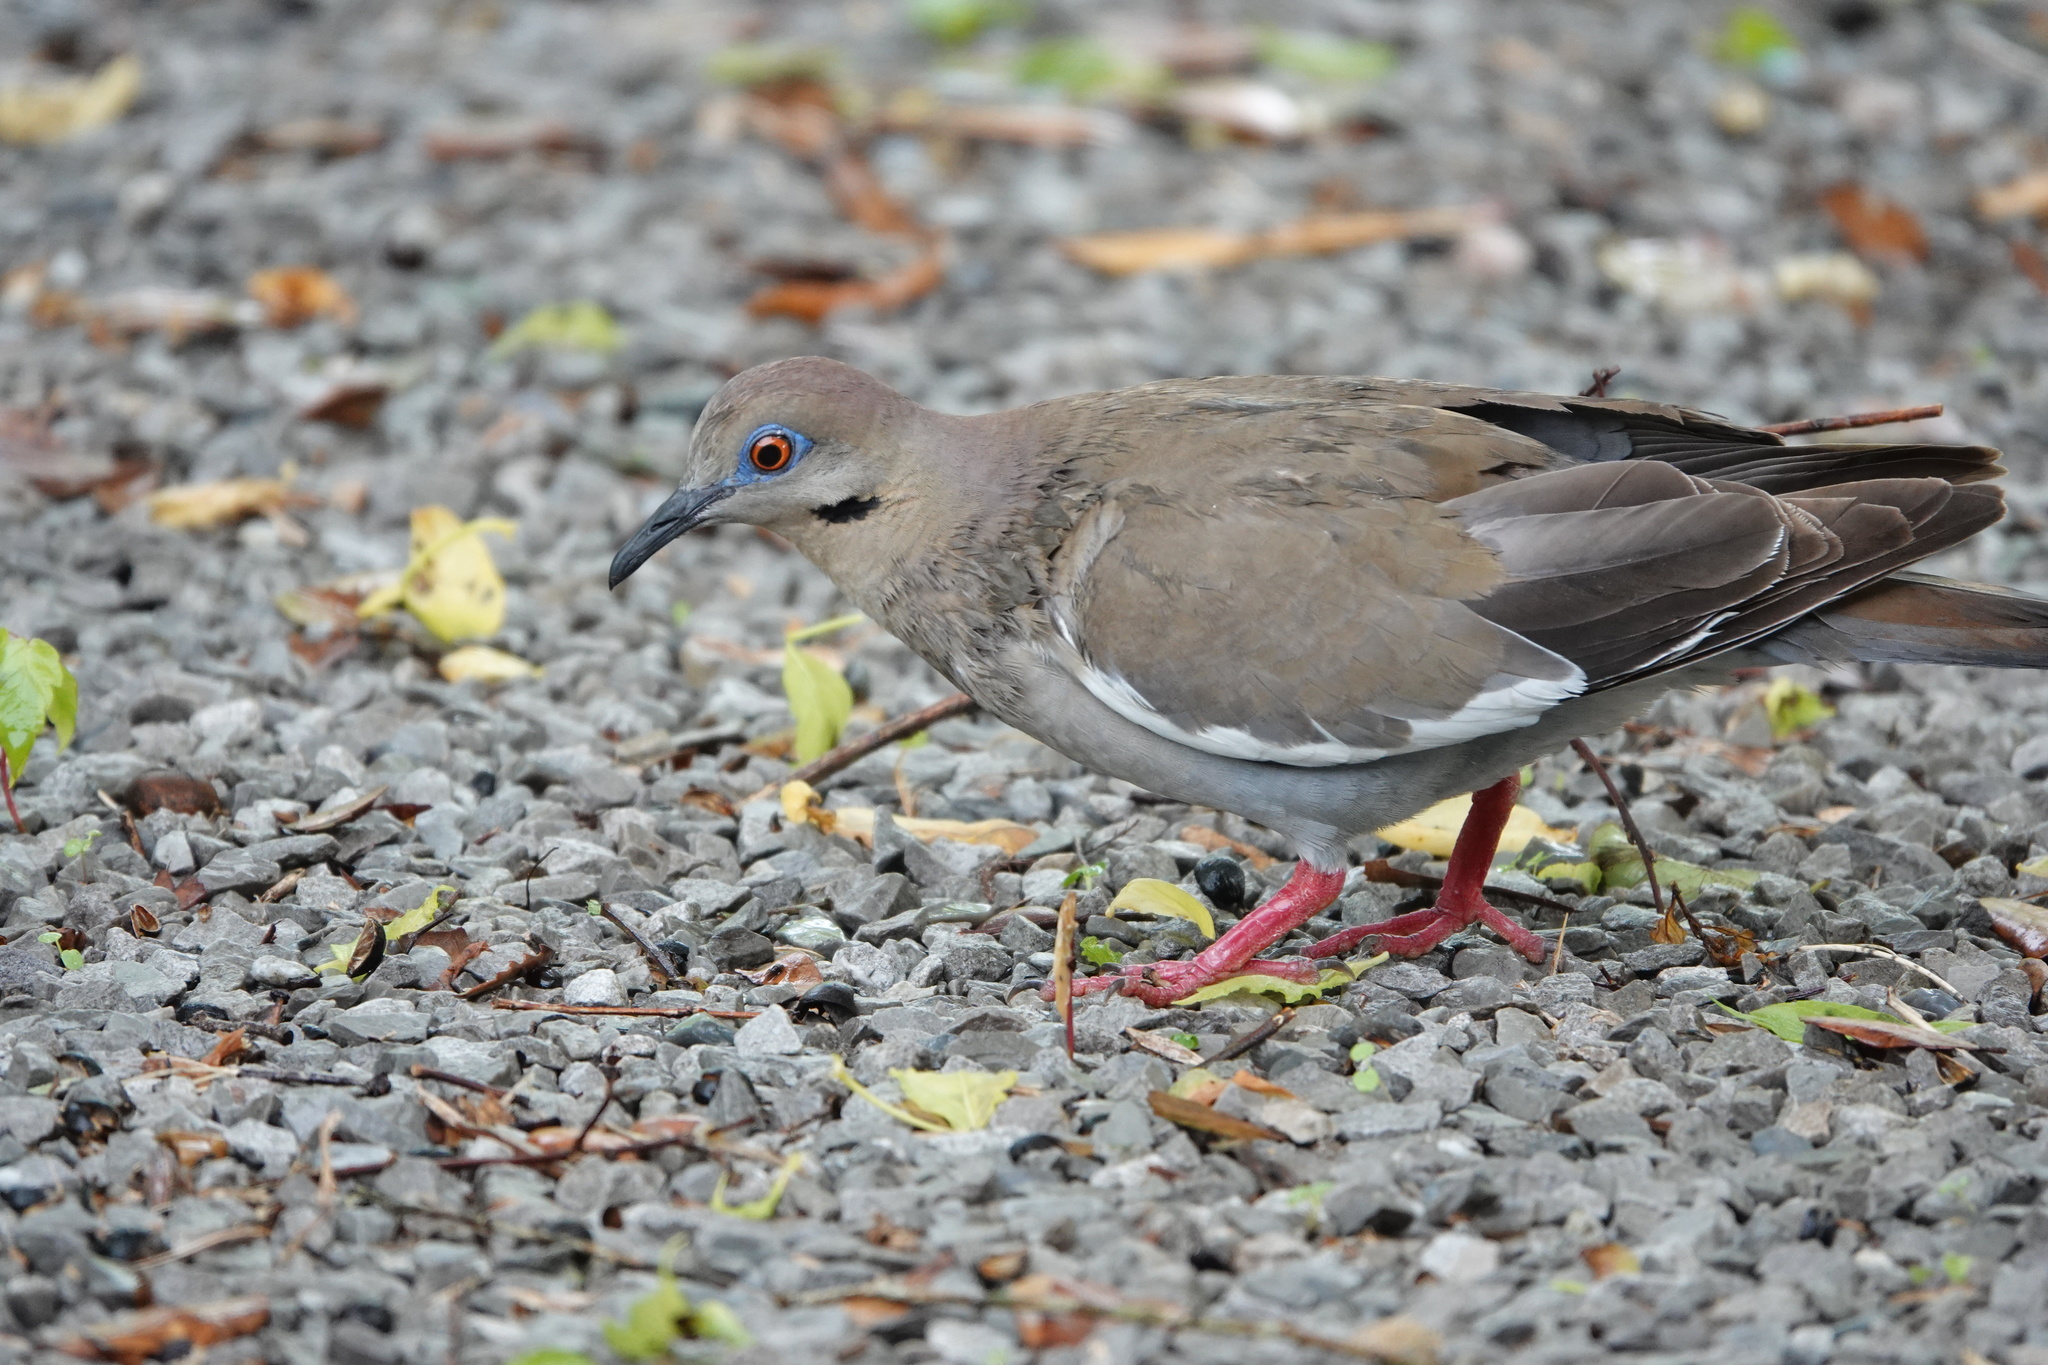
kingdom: Animalia
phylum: Chordata
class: Aves
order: Columbiformes
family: Columbidae
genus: Zenaida
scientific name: Zenaida asiatica
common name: White-winged dove
